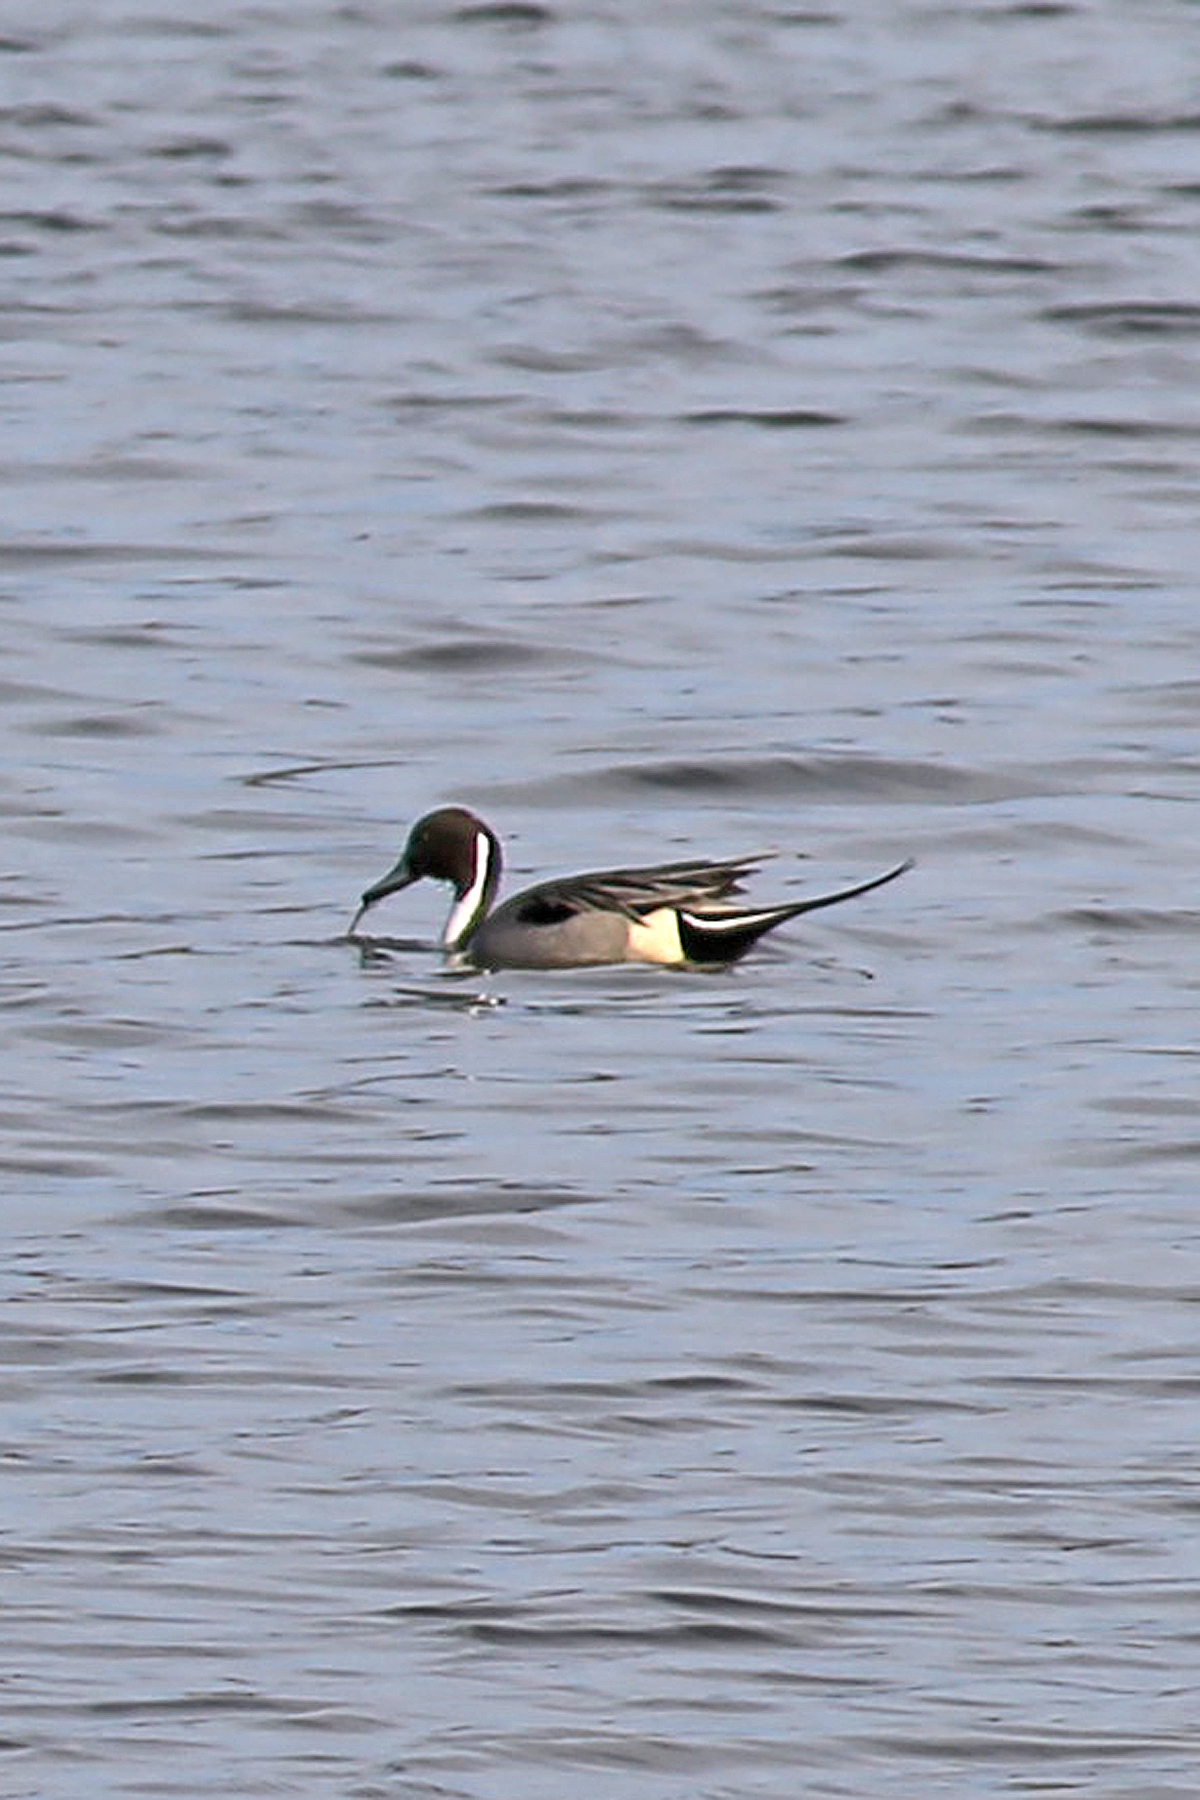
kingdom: Animalia
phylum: Chordata
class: Aves
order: Anseriformes
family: Anatidae
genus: Anas
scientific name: Anas acuta
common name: Northern pintail
